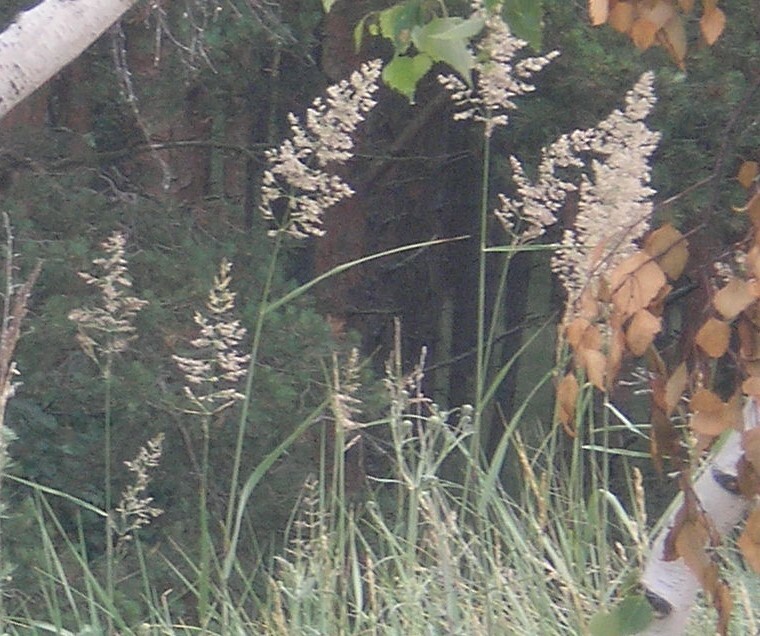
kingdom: Plantae
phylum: Tracheophyta
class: Liliopsida
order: Poales
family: Poaceae
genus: Calamagrostis
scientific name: Calamagrostis epigejos
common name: Wood small-reed
